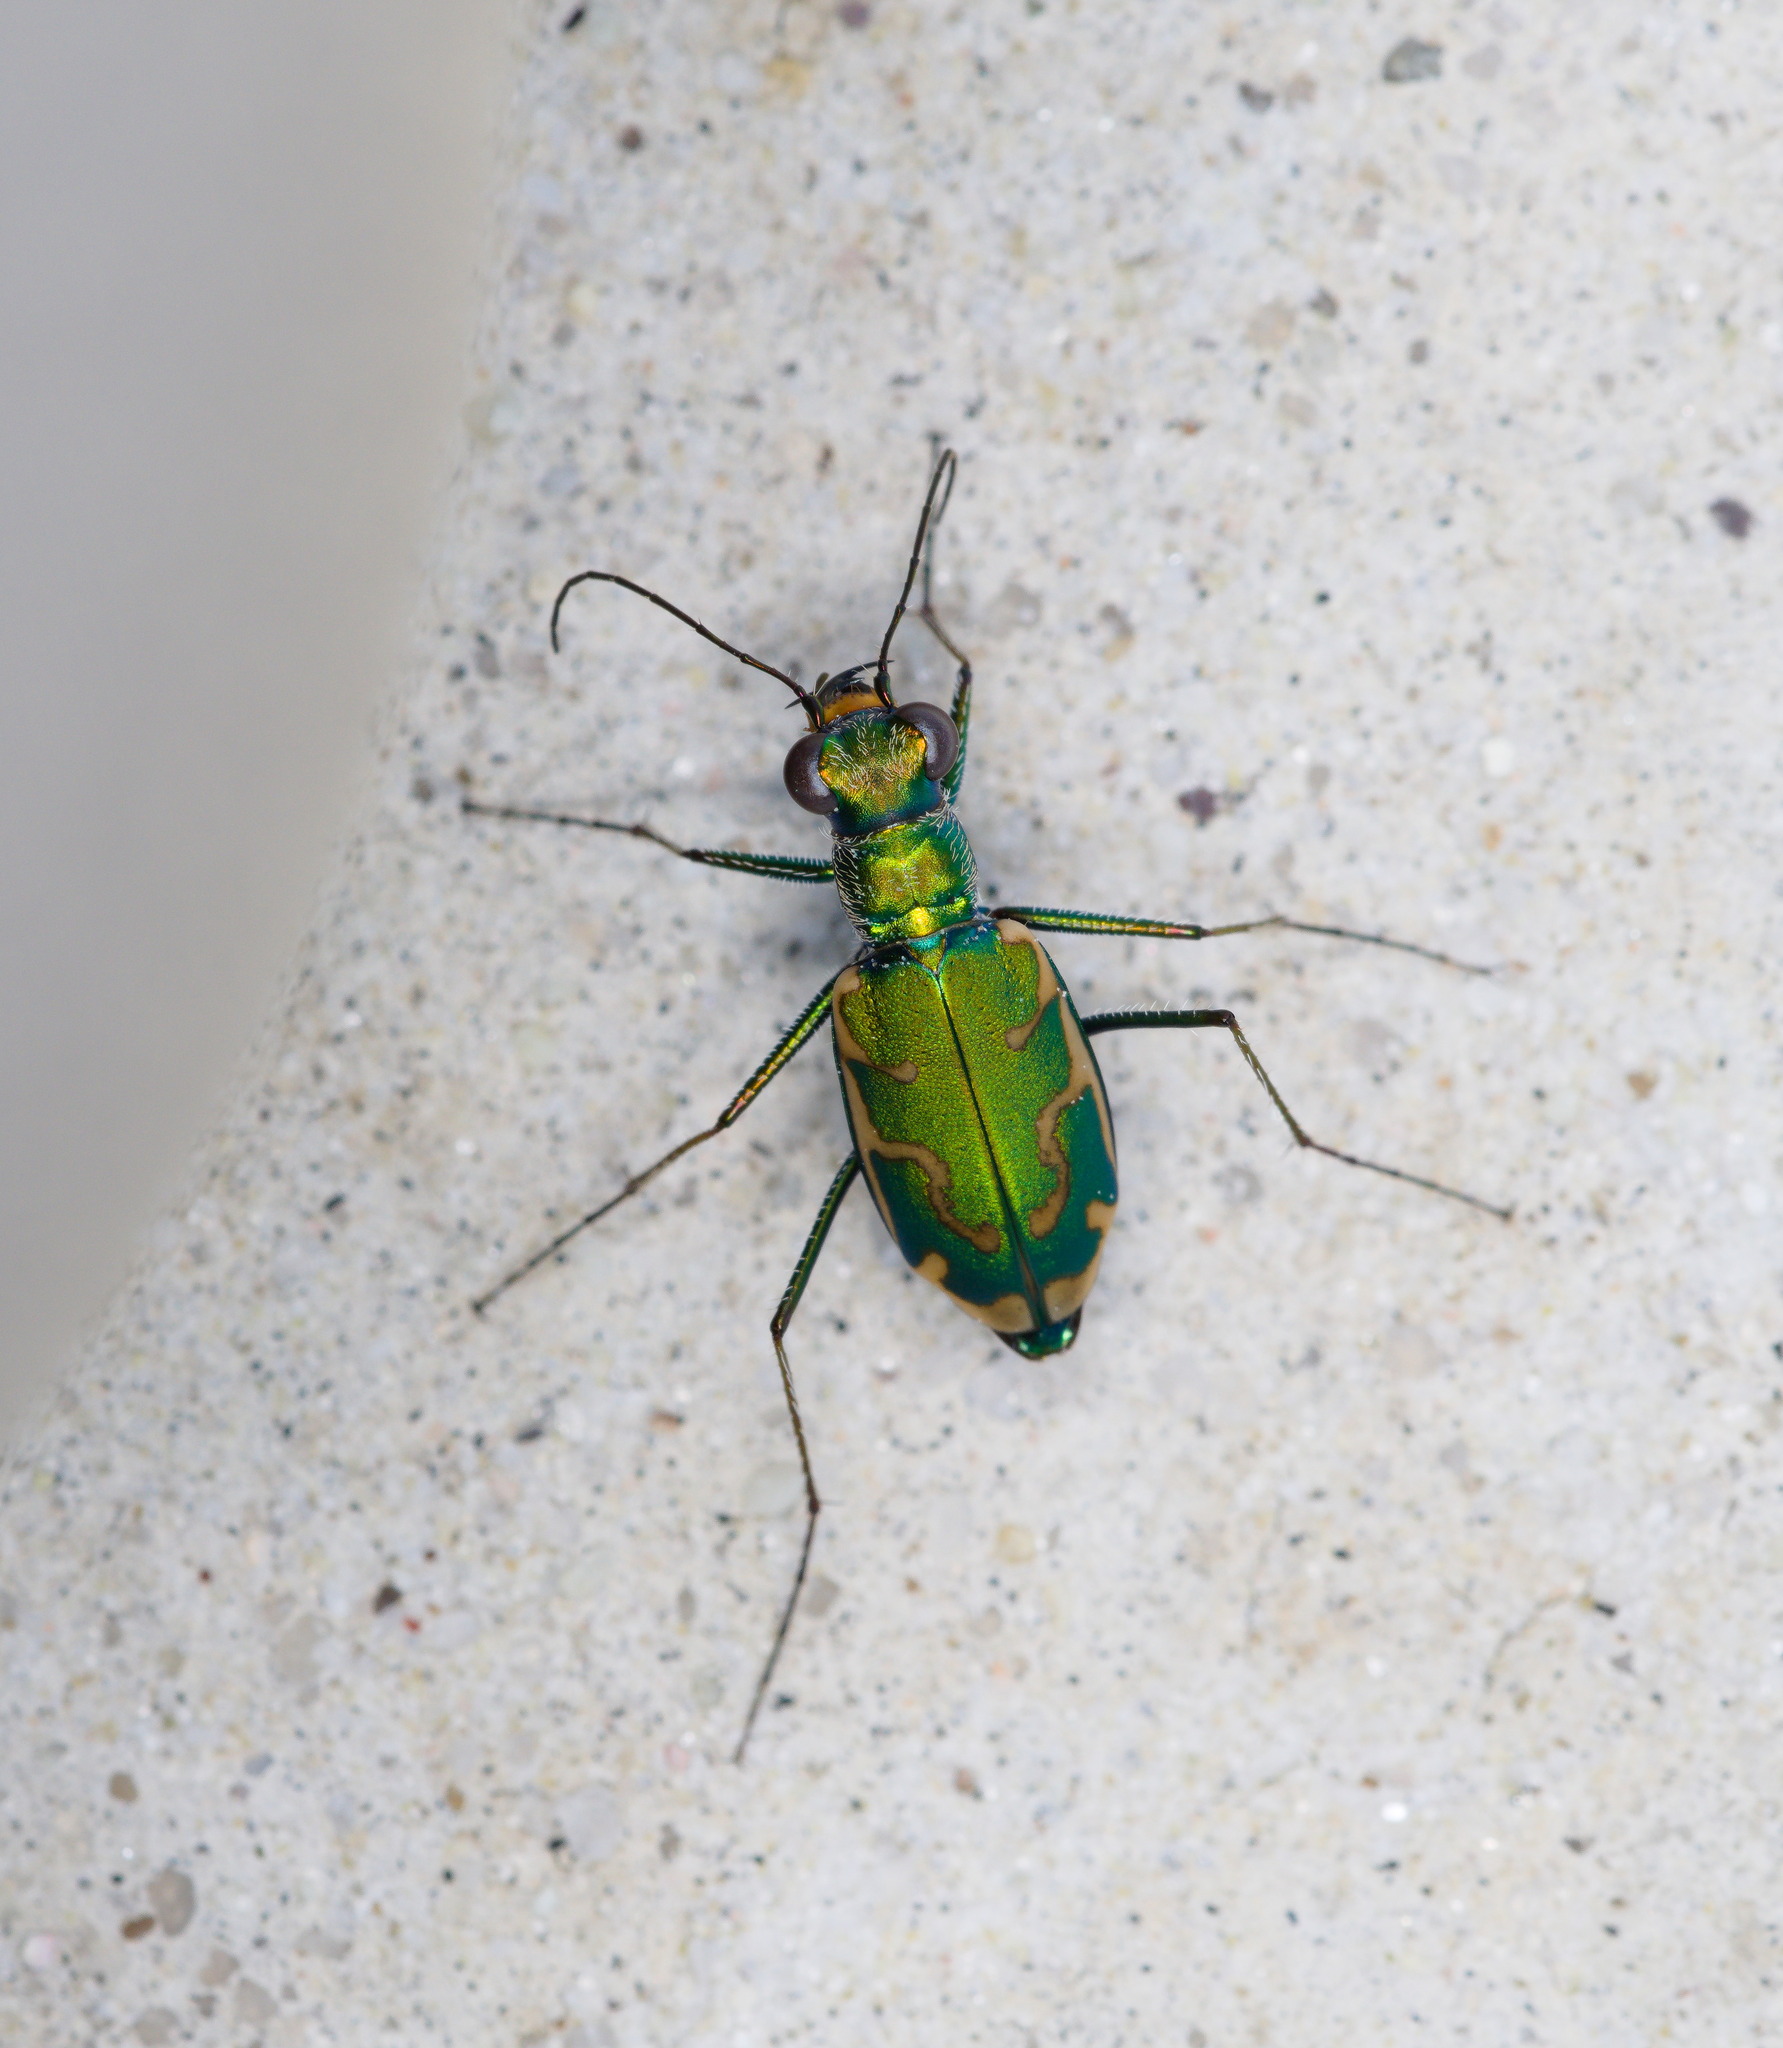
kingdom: Animalia
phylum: Arthropoda
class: Insecta
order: Coleoptera
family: Carabidae
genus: Ellipsoptera
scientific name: Ellipsoptera rubicunda
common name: Aridland tiger beetle
